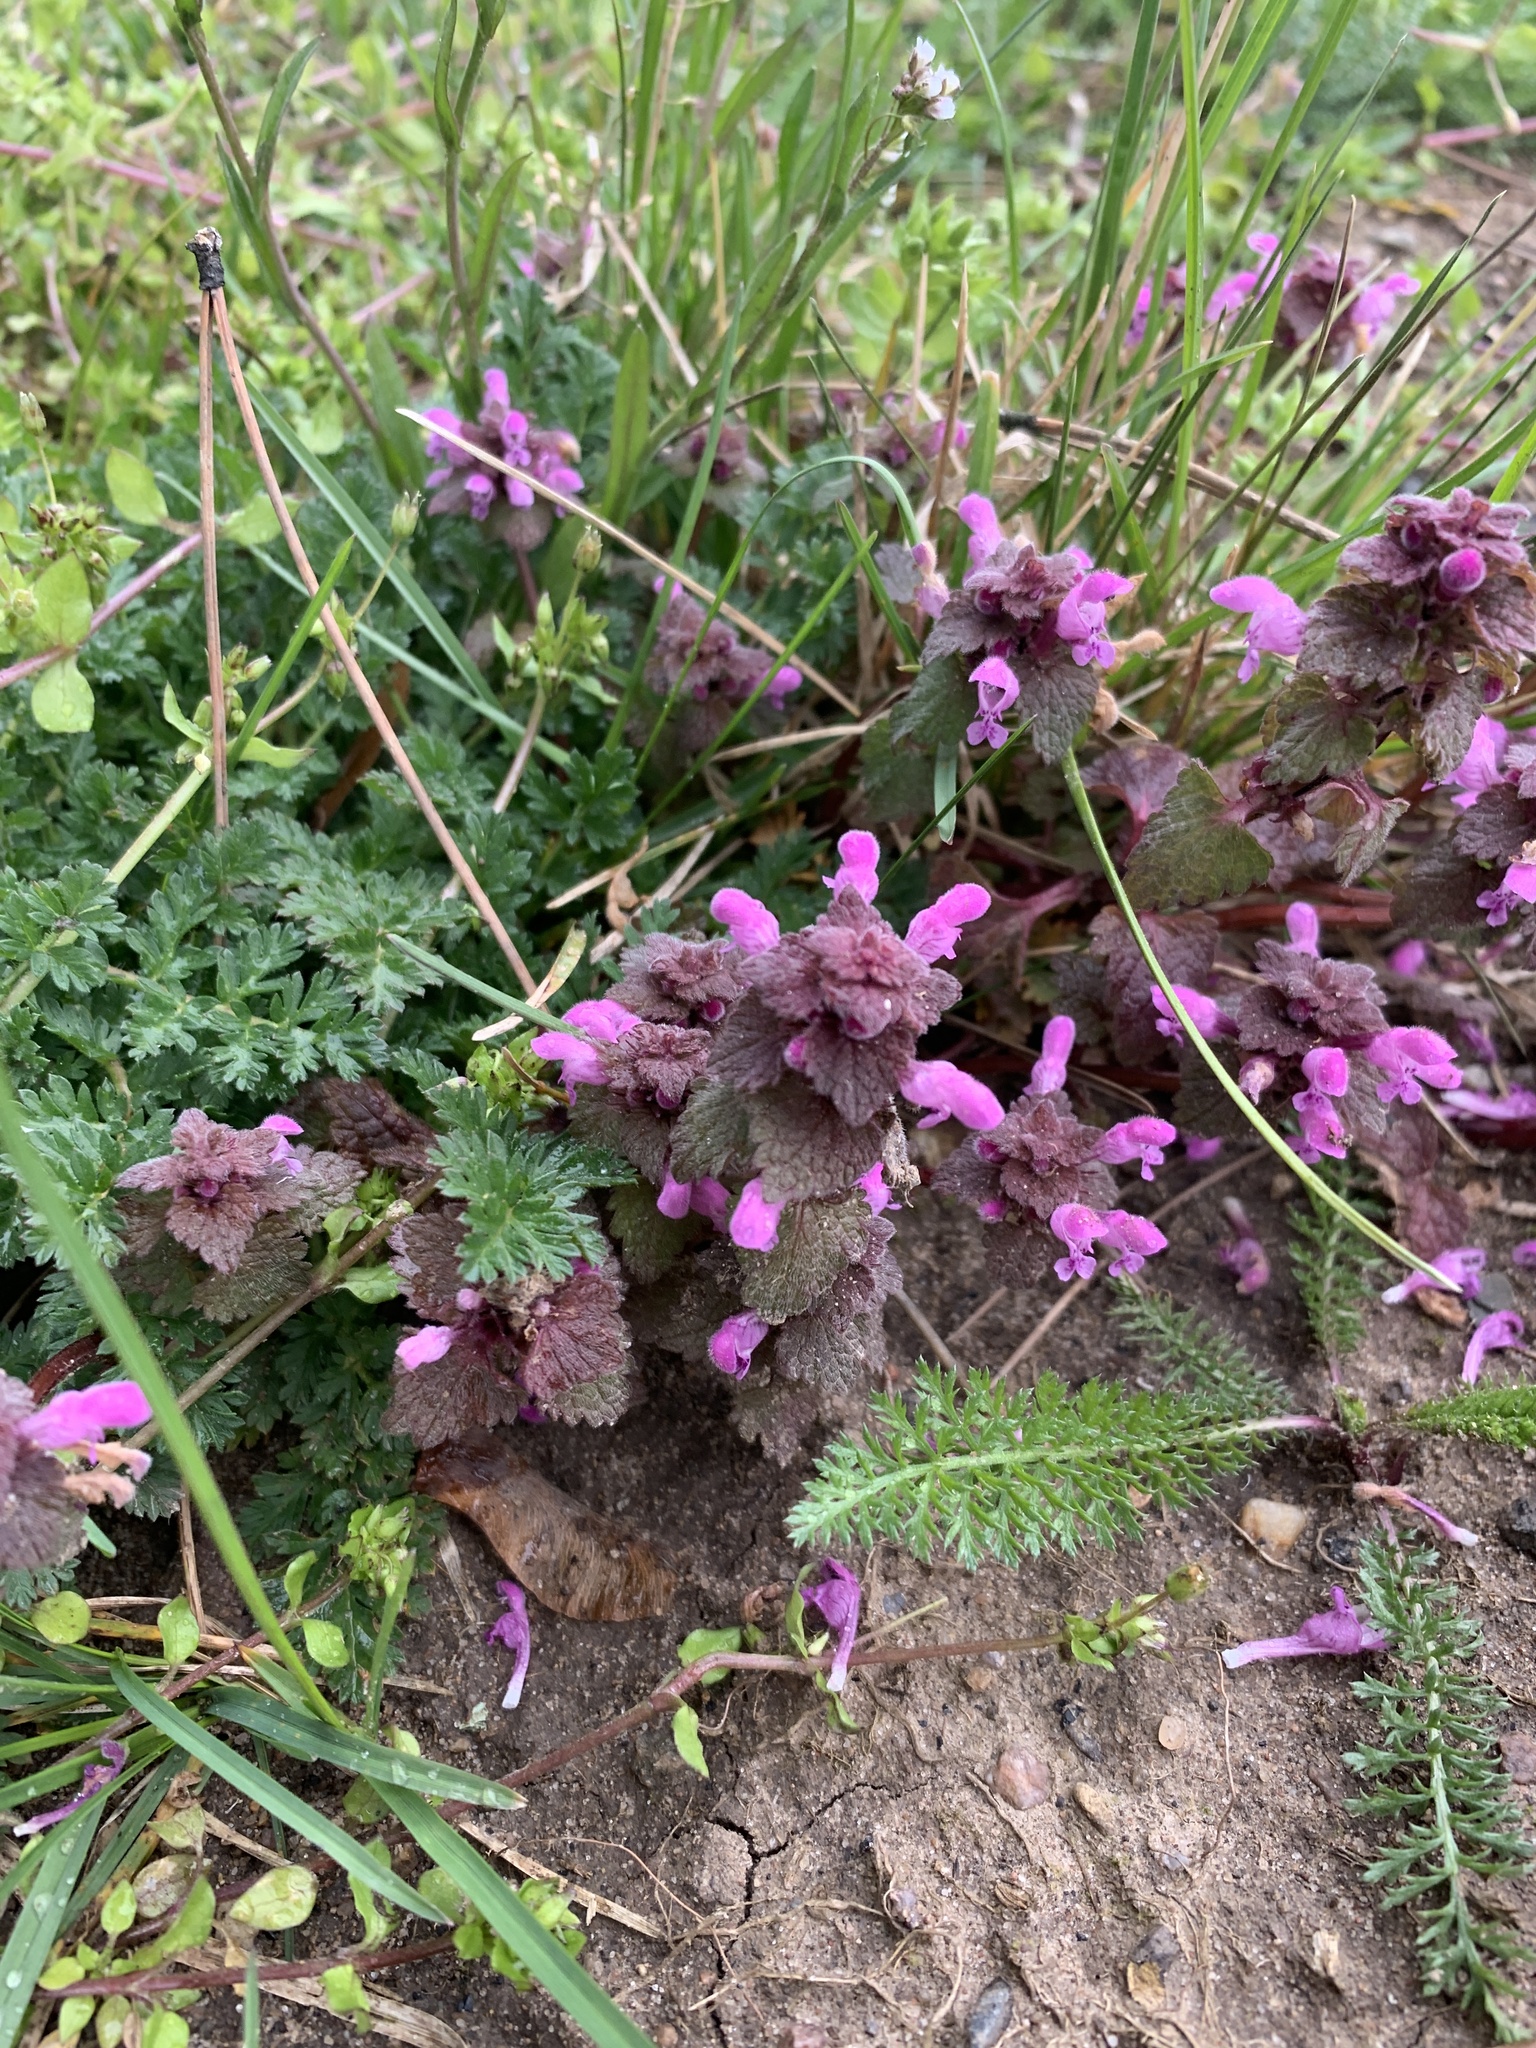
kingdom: Plantae
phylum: Tracheophyta
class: Magnoliopsida
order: Lamiales
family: Lamiaceae
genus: Lamium
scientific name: Lamium purpureum
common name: Red dead-nettle
